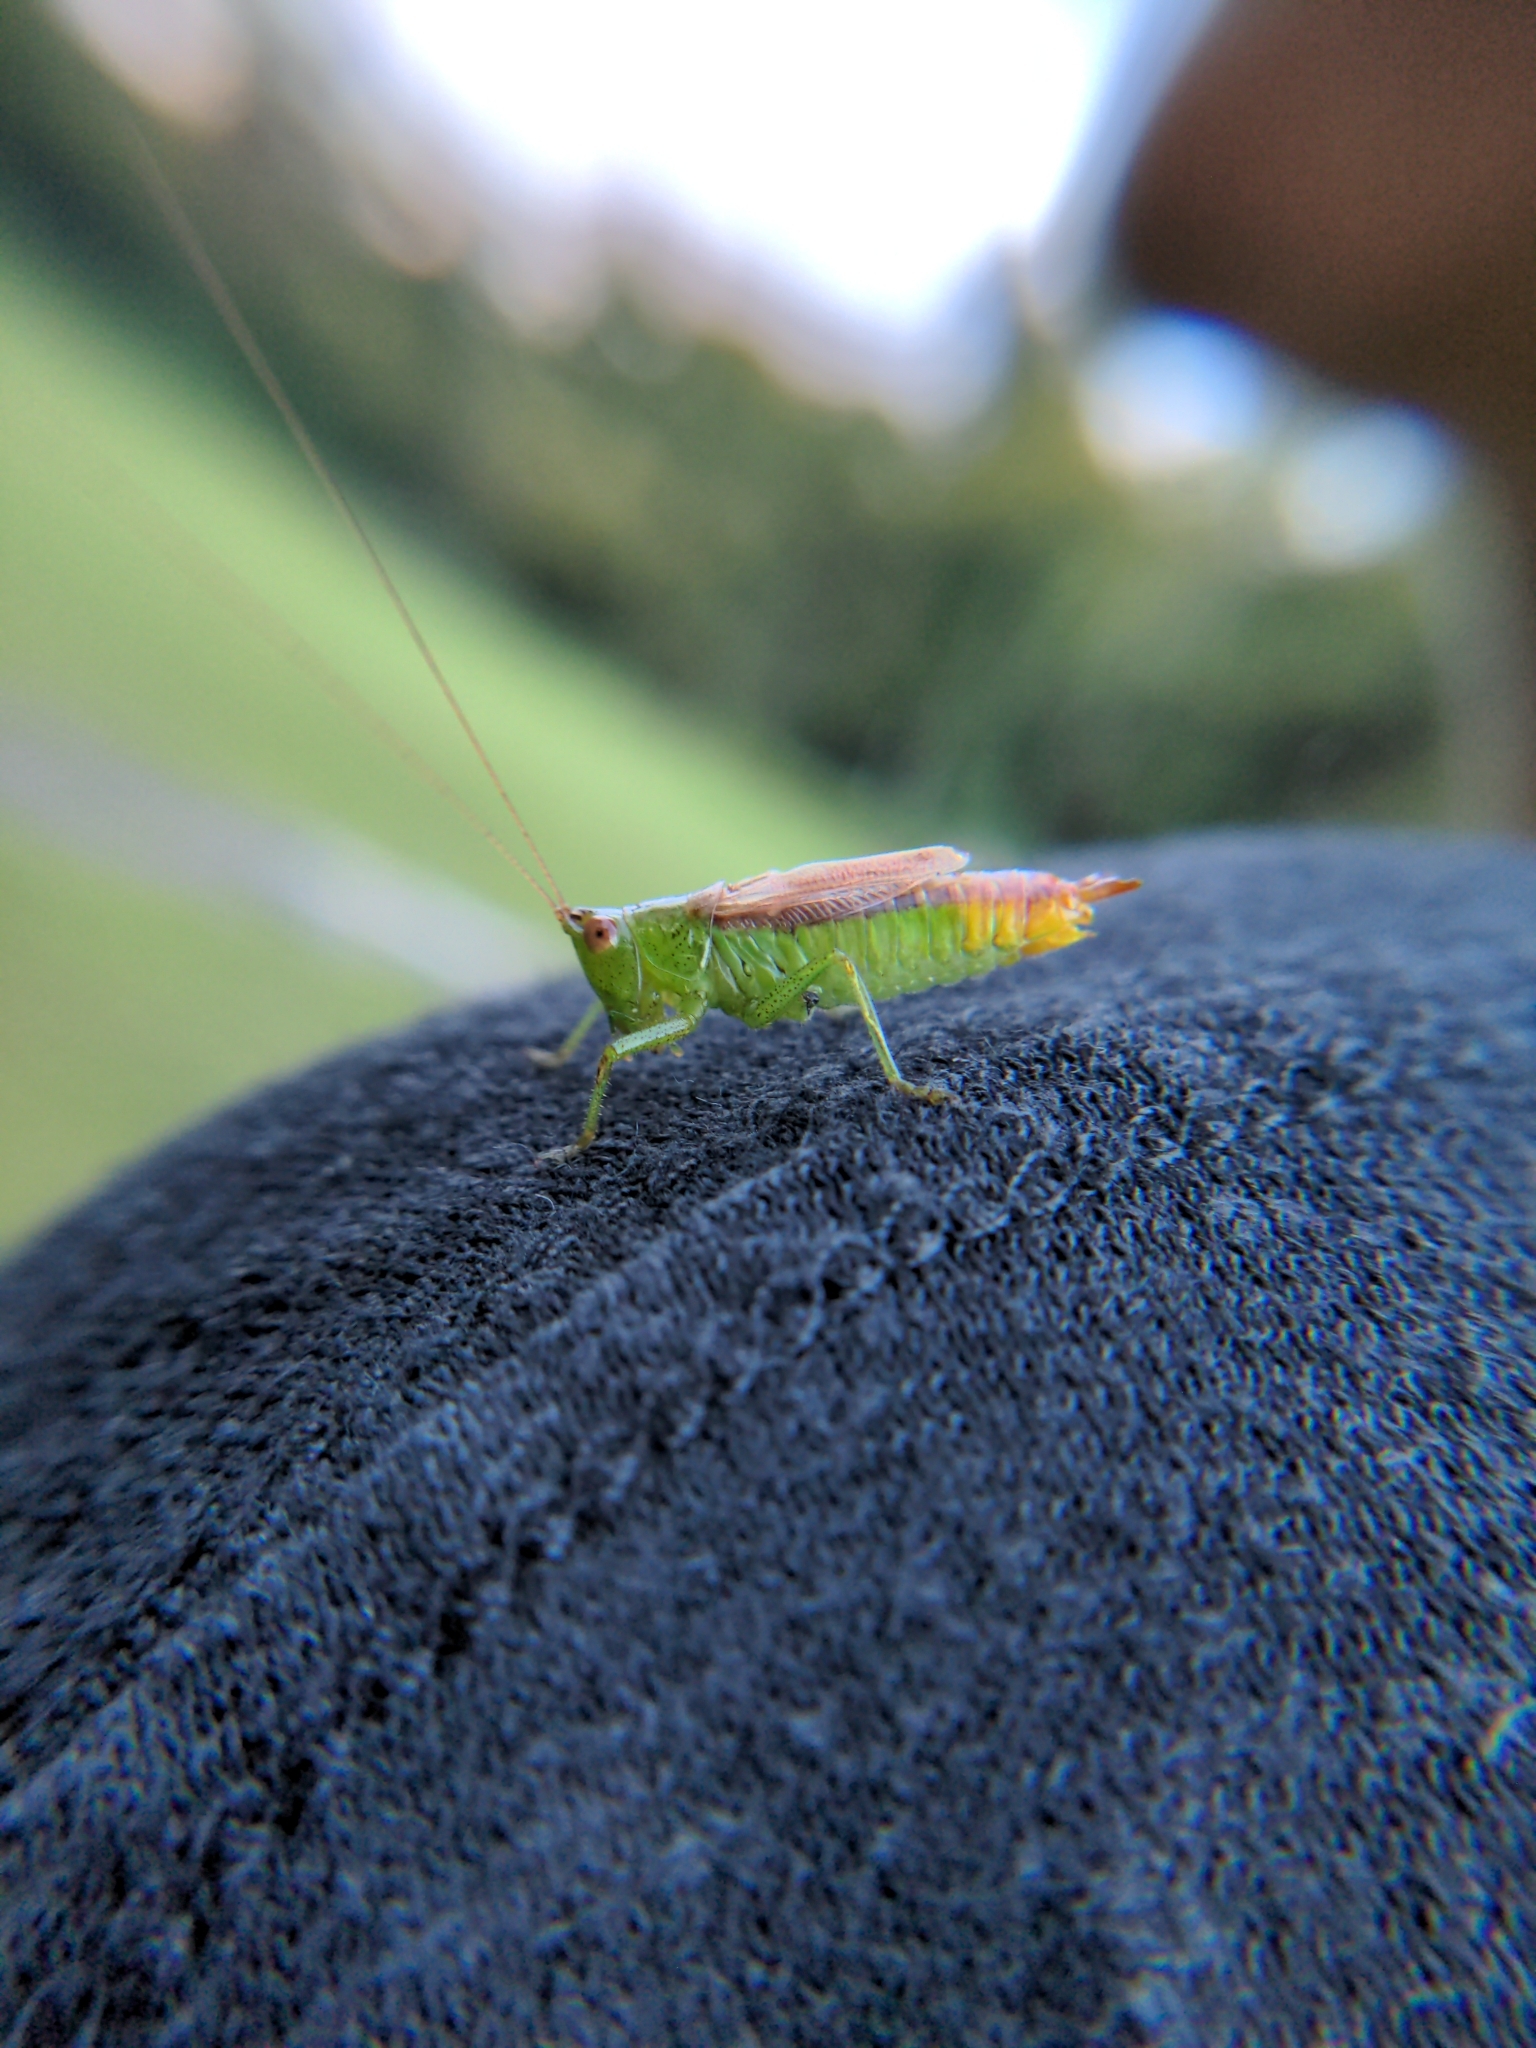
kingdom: Animalia
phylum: Arthropoda
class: Insecta
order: Orthoptera
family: Tettigoniidae
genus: Conocephalus
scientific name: Conocephalus brevipennis
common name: Short-winged meadow katydid
